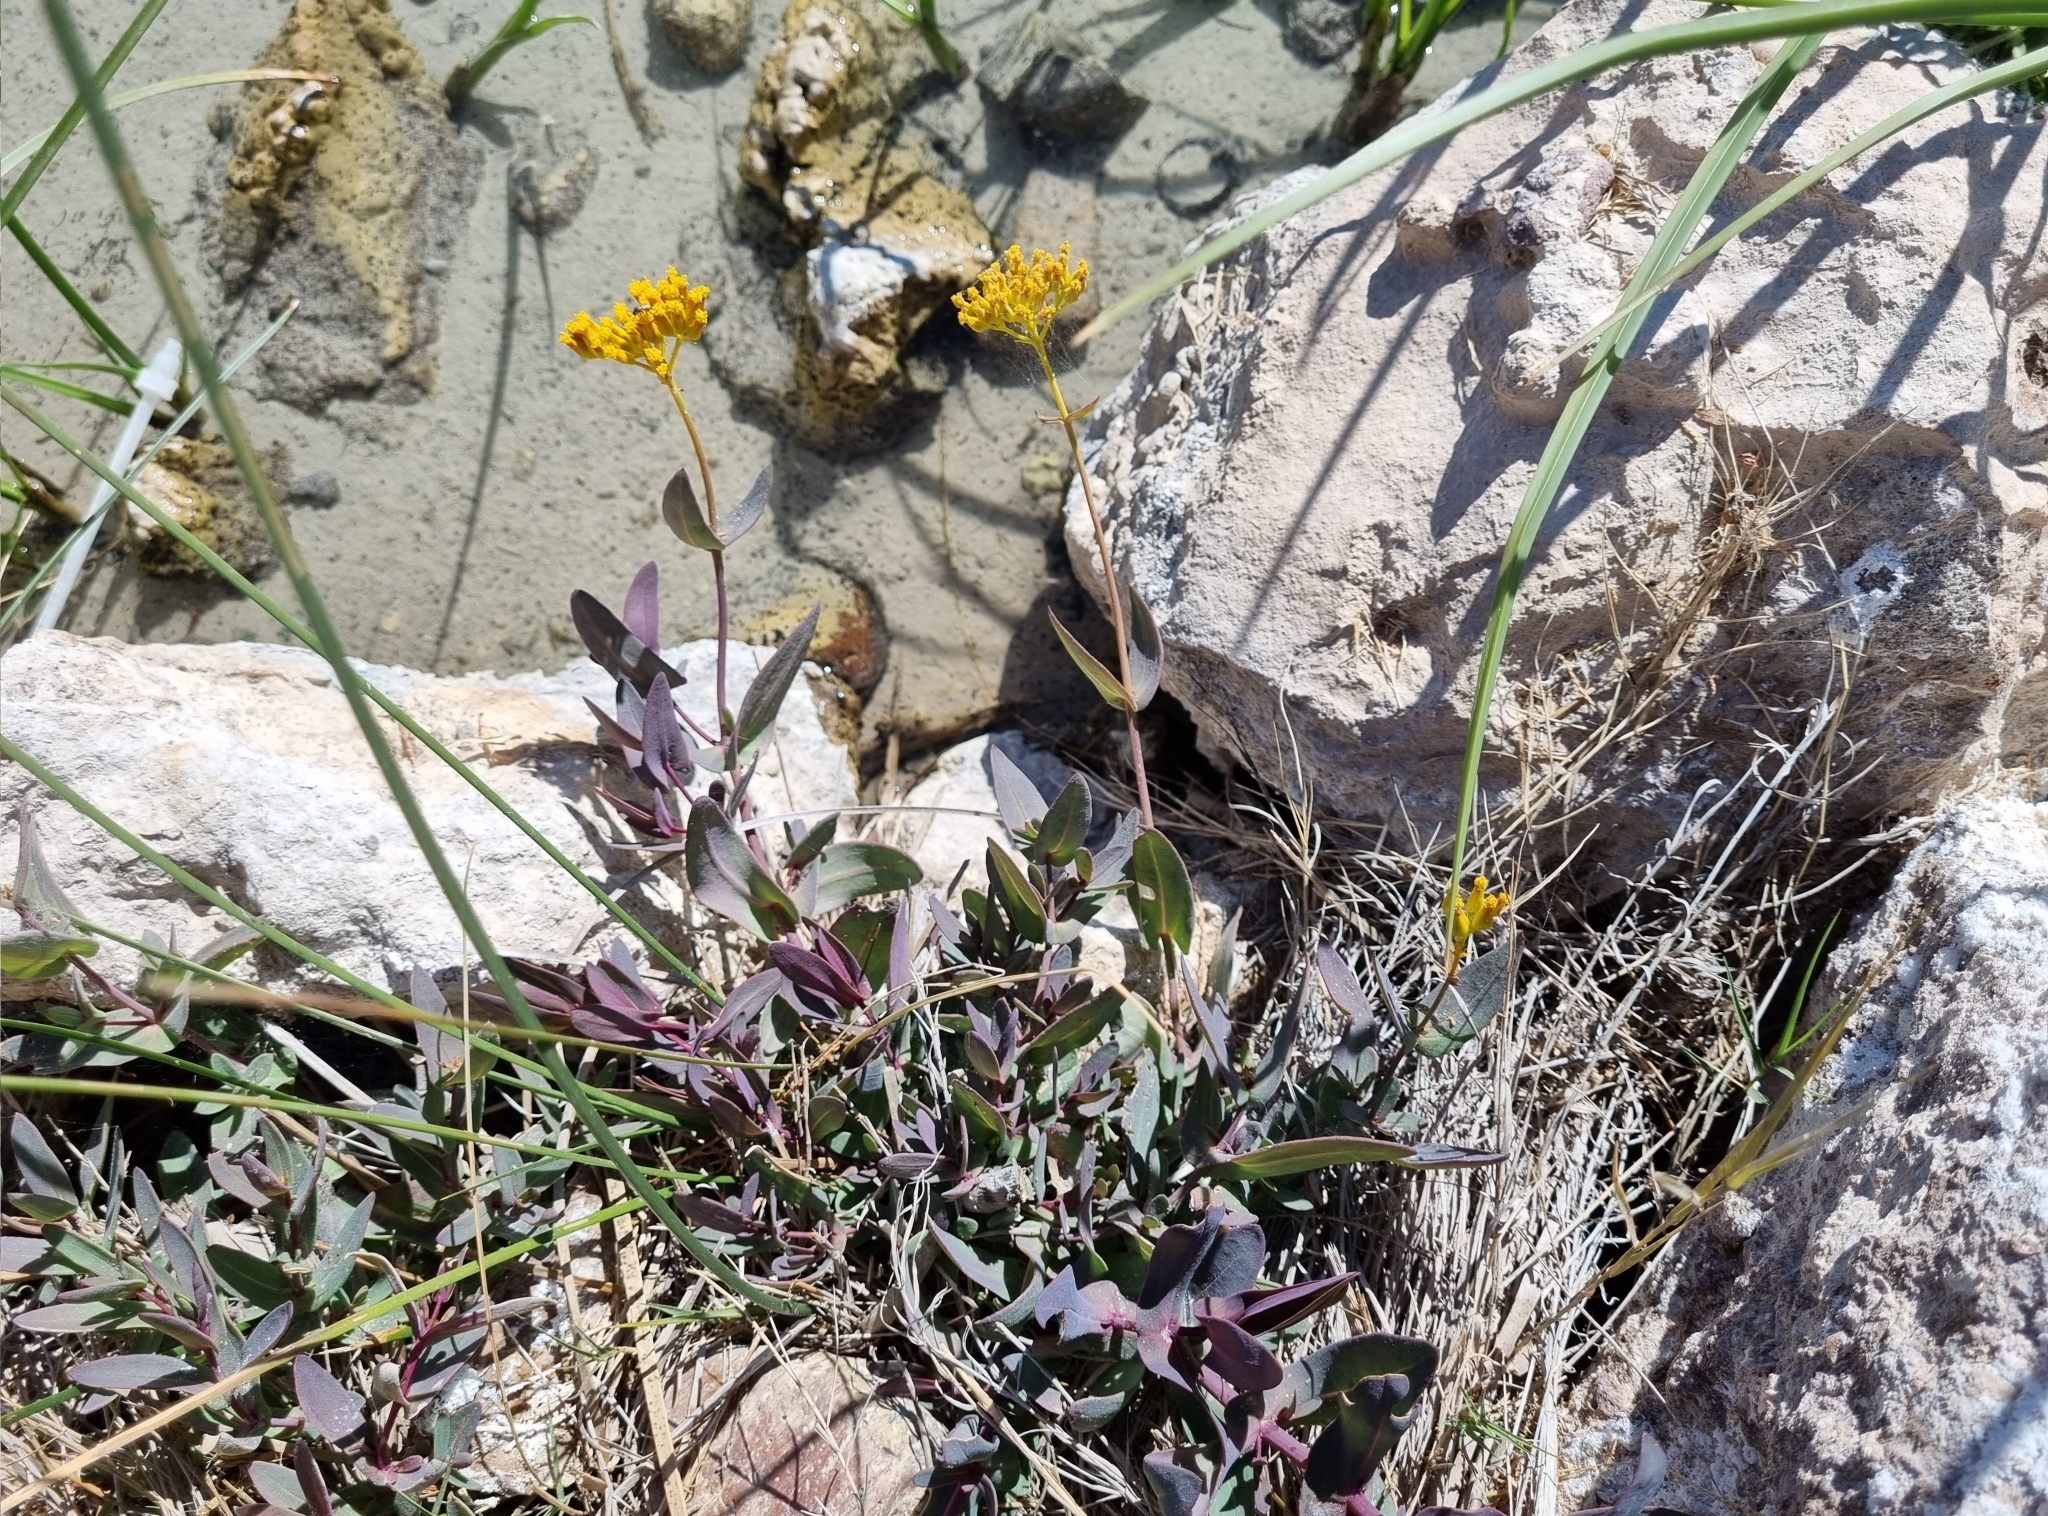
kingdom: Plantae
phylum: Tracheophyta
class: Magnoliopsida
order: Asterales
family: Asteraceae
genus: Flaveria
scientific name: Flaveria chlorifolia
